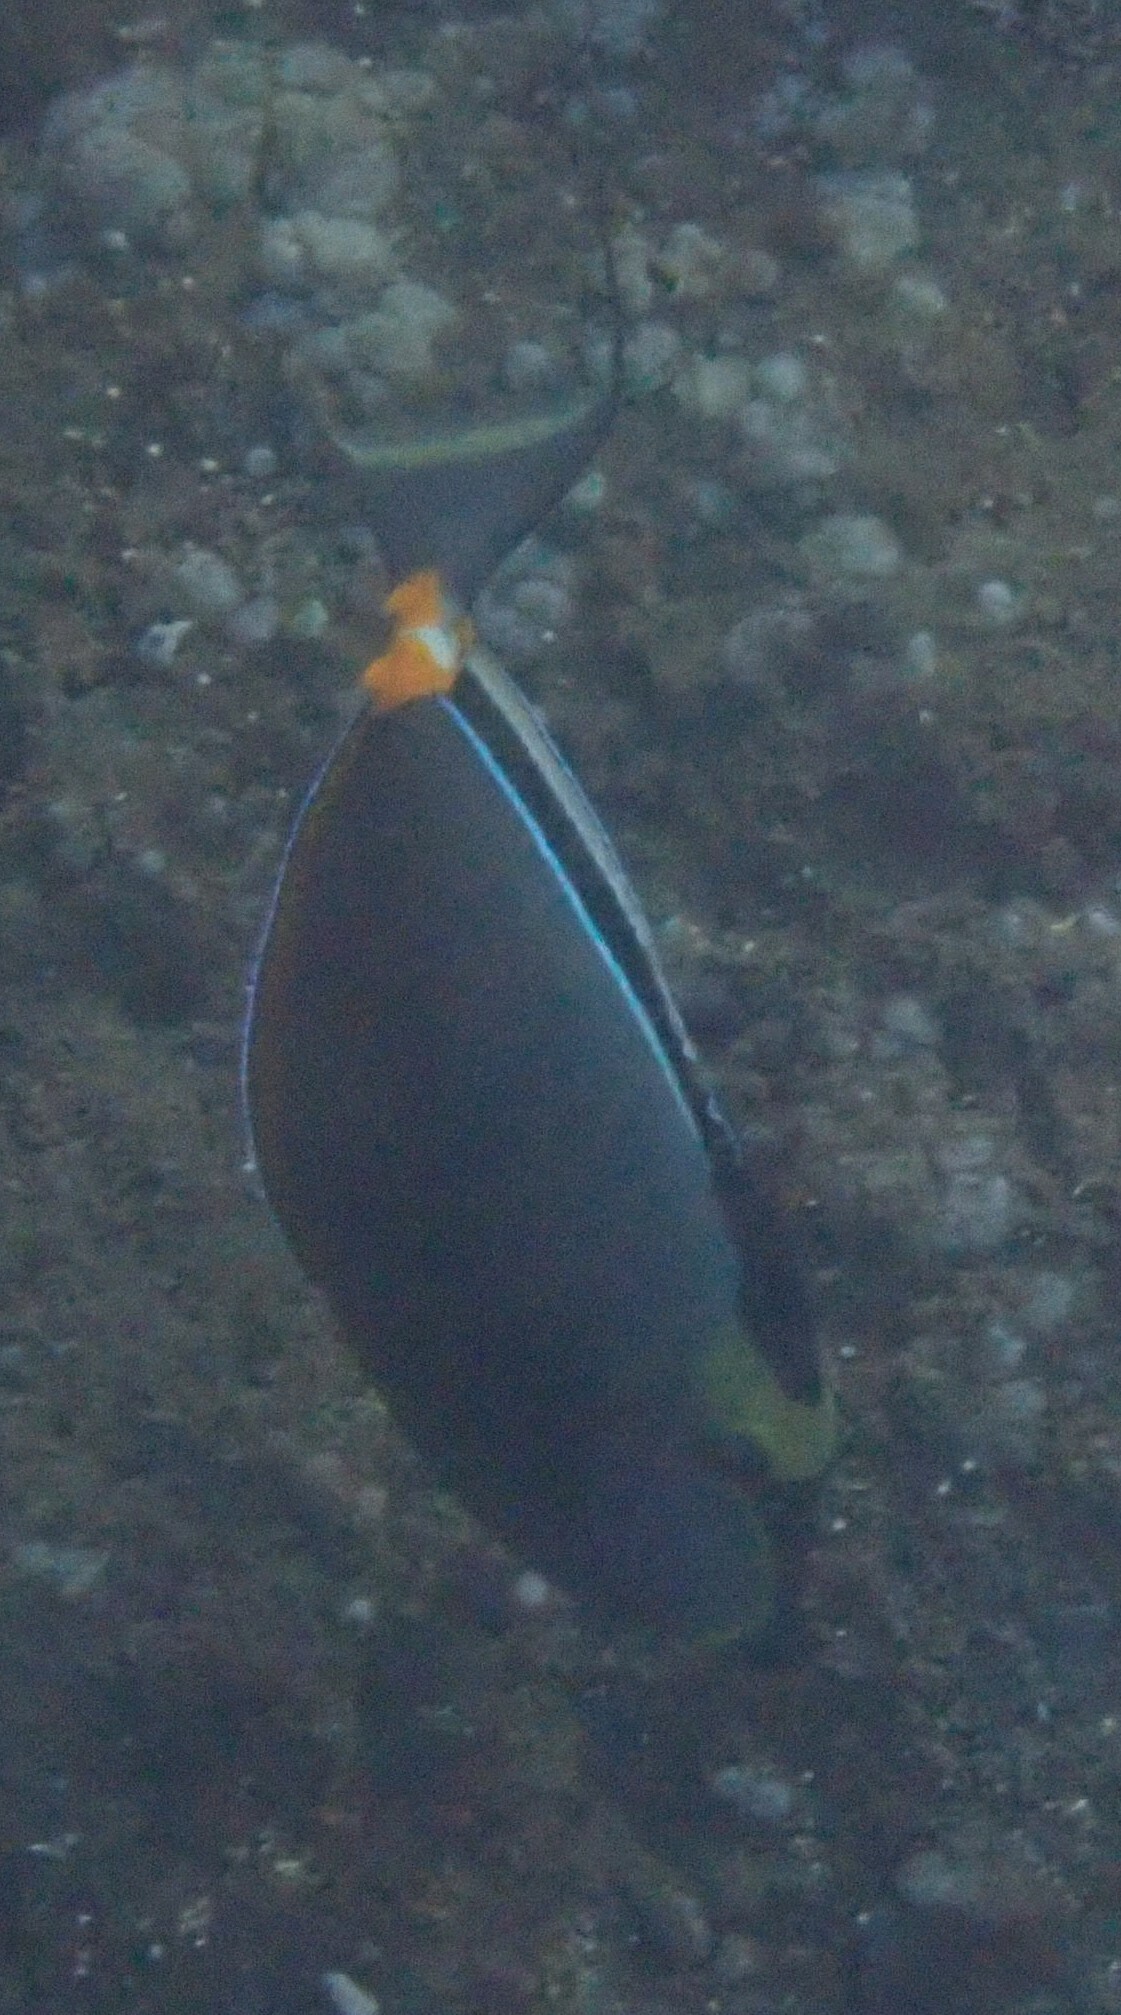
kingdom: Animalia
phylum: Chordata
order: Perciformes
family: Acanthuridae
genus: Naso
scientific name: Naso lituratus
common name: Orangespine unicornfish
